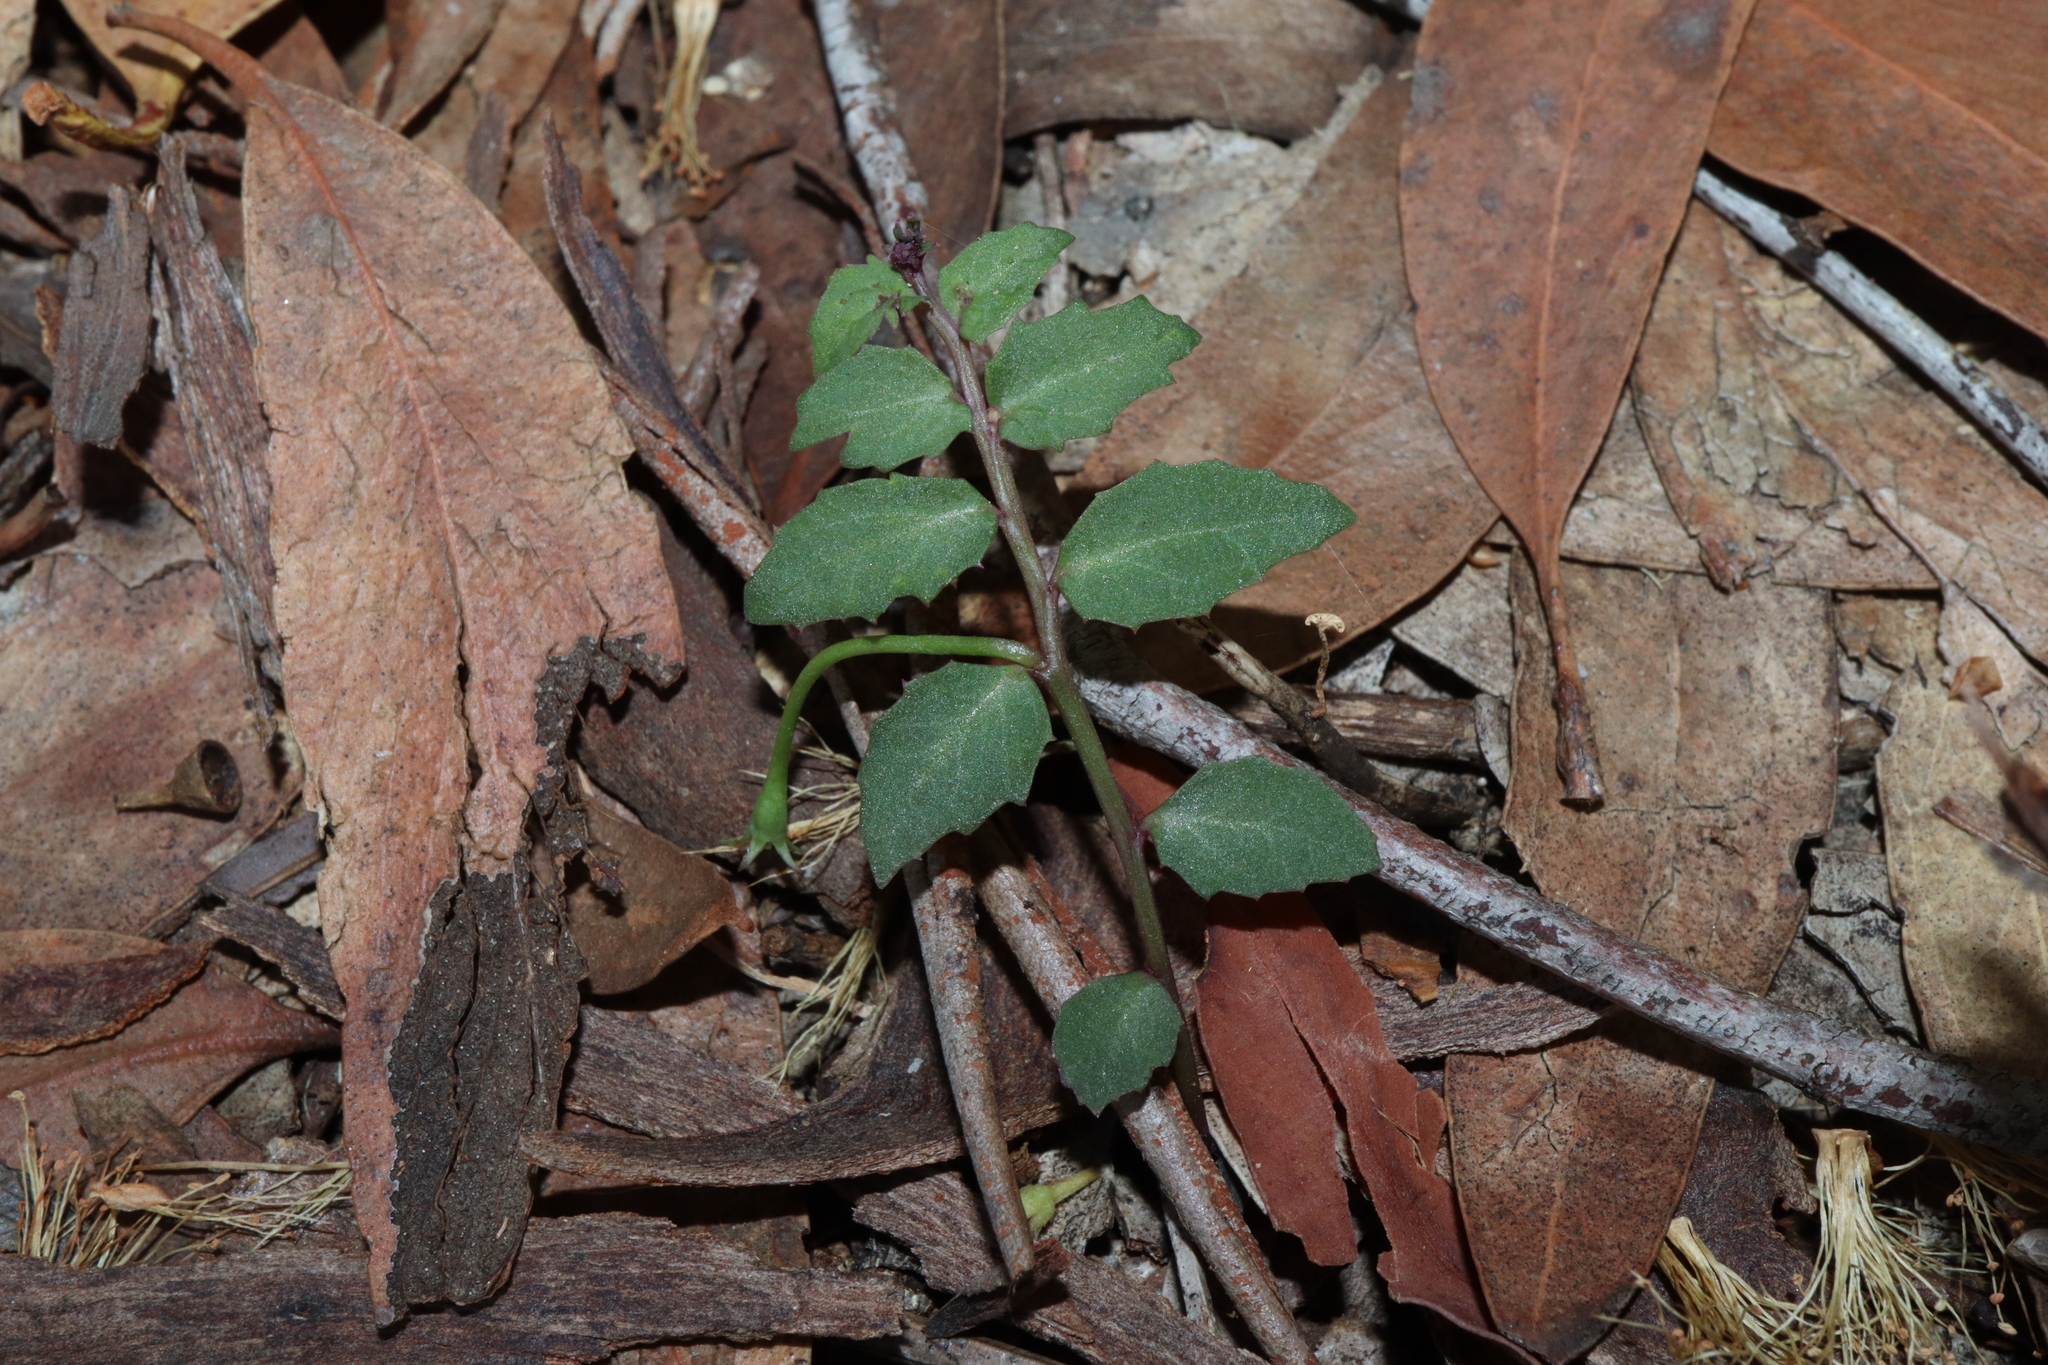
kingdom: Plantae
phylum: Tracheophyta
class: Magnoliopsida
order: Asterales
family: Campanulaceae
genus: Lobelia
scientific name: Lobelia purpurascens
